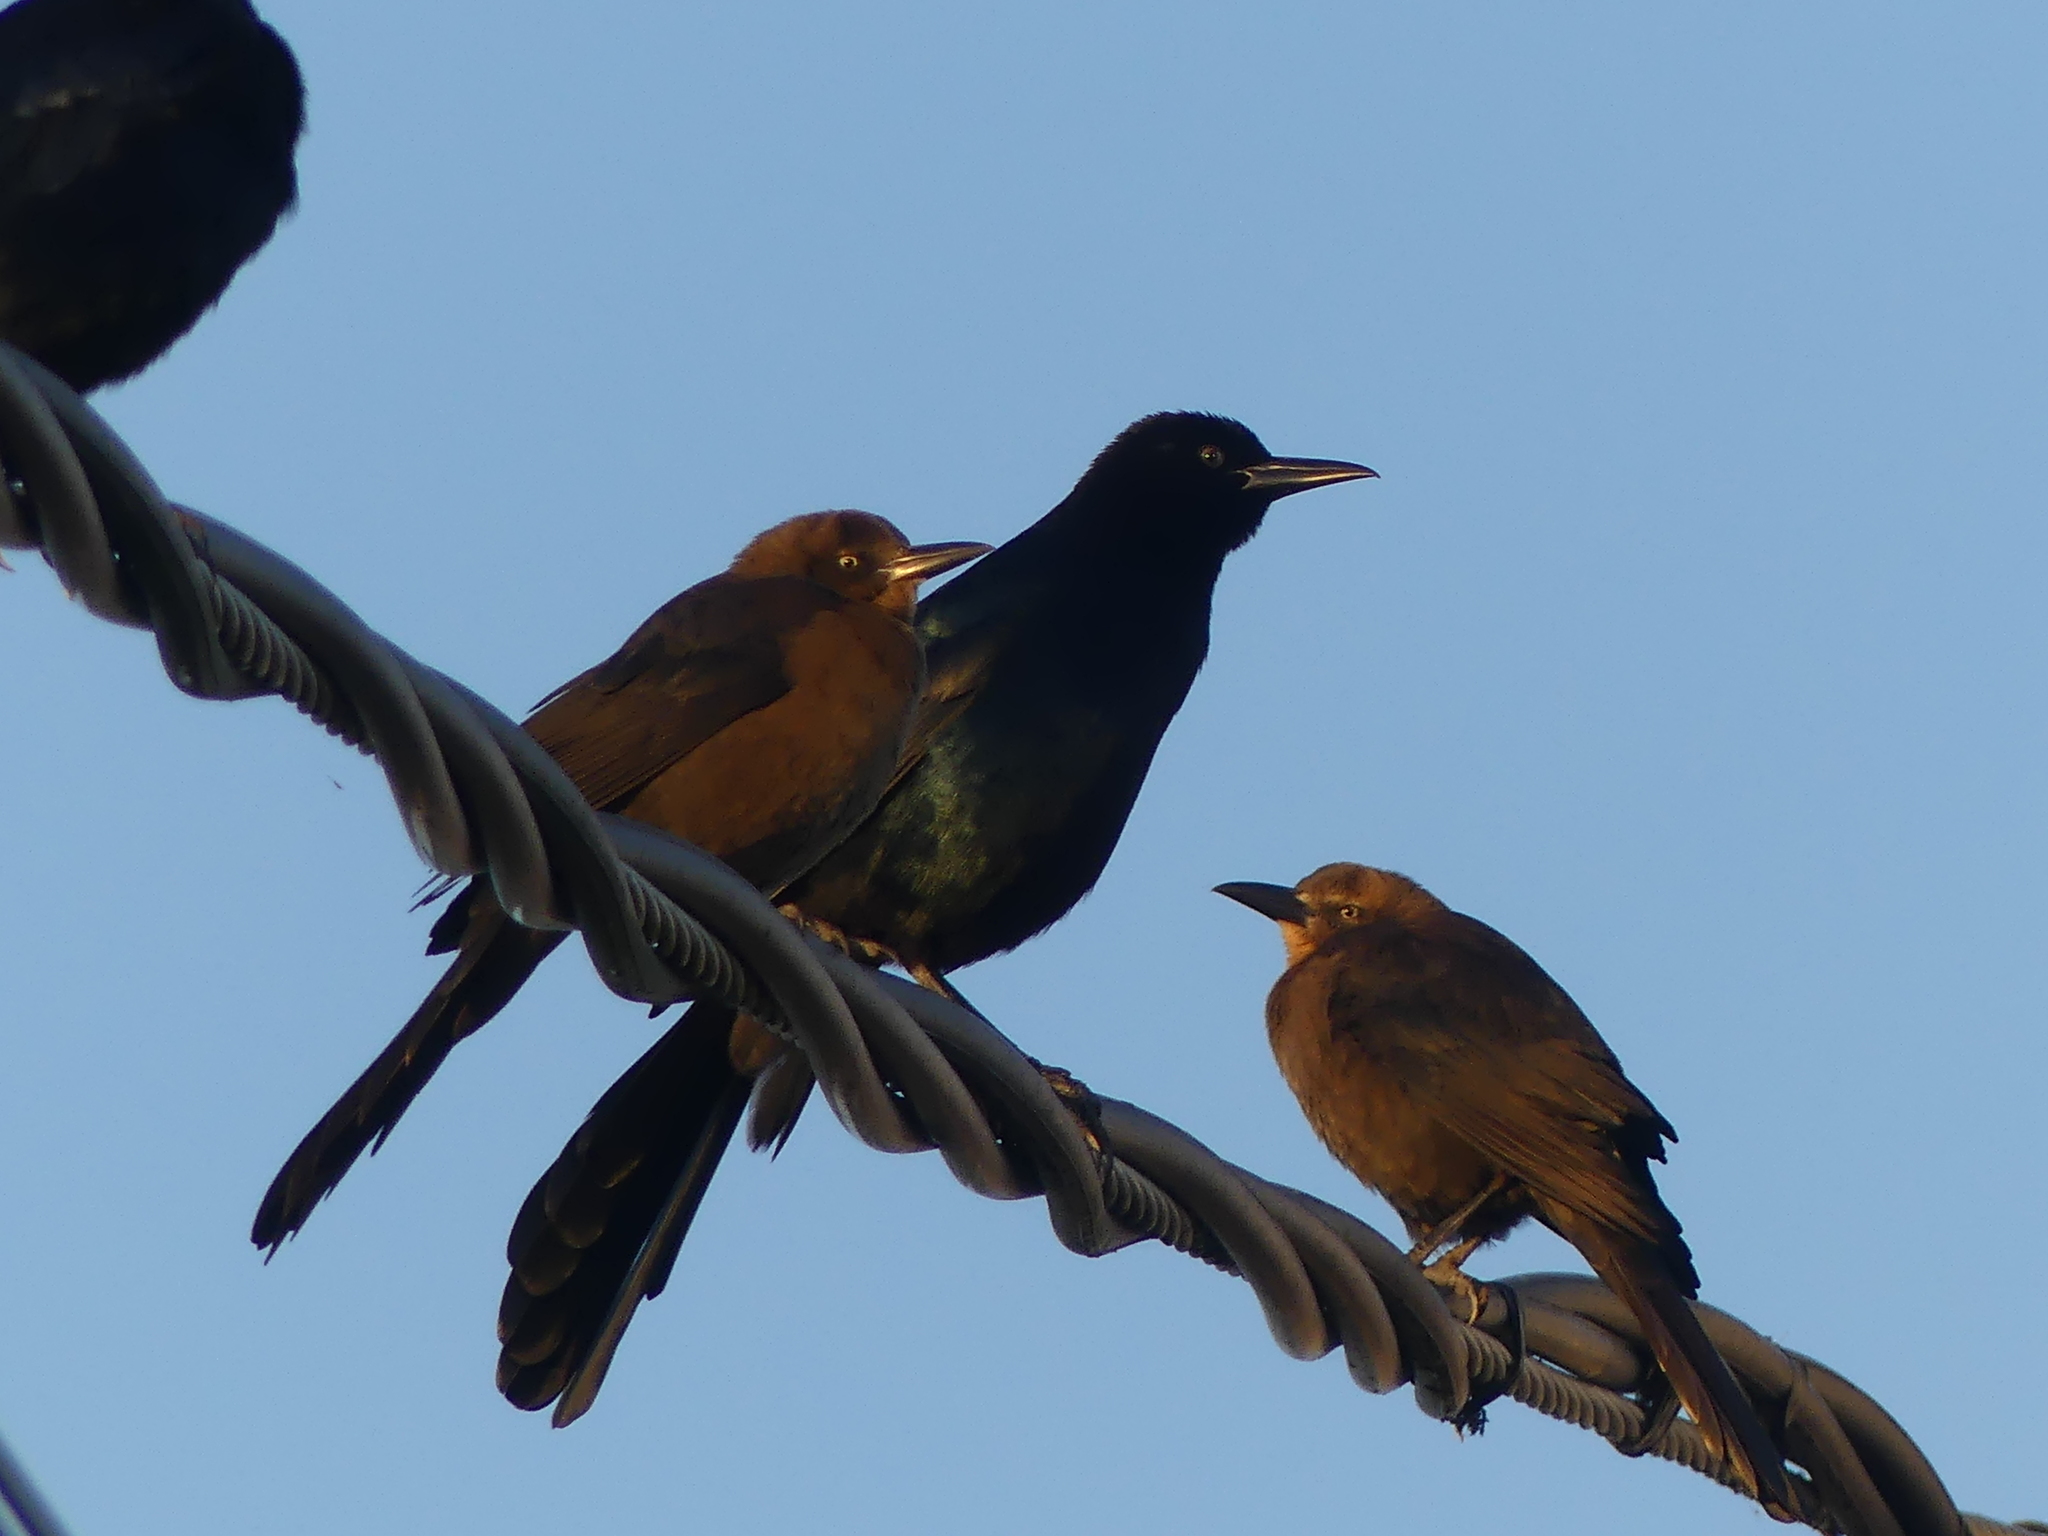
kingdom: Animalia
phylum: Chordata
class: Aves
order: Passeriformes
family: Icteridae
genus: Quiscalus
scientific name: Quiscalus major
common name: Boat-tailed grackle
